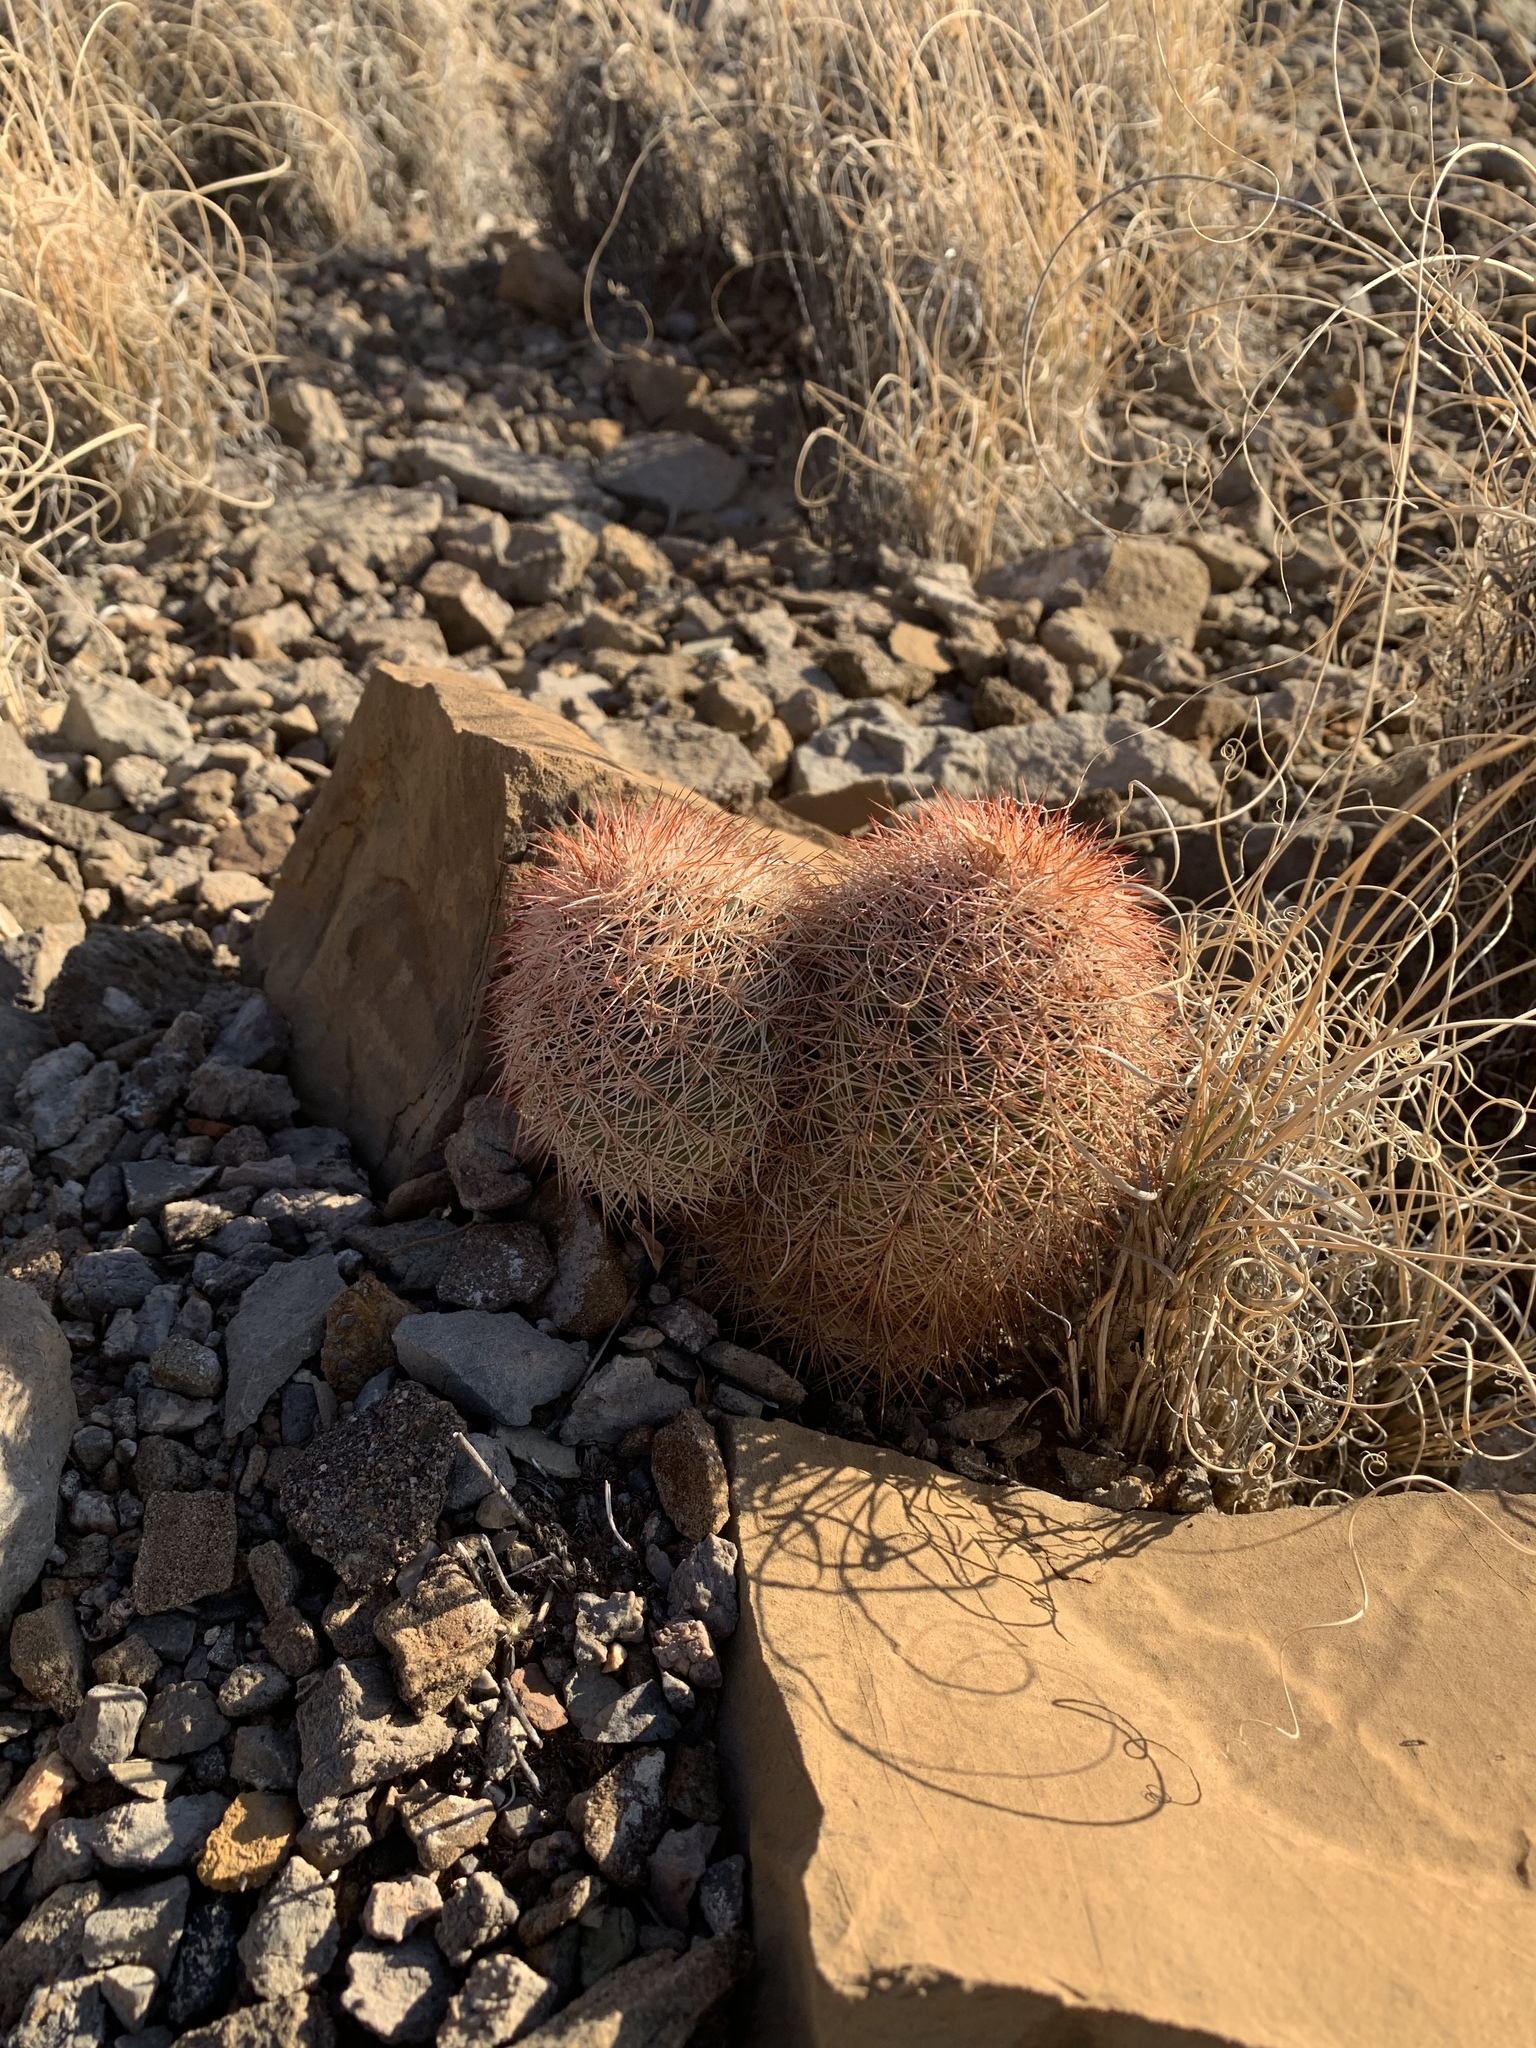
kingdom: Plantae
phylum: Tracheophyta
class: Magnoliopsida
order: Caryophyllales
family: Cactaceae
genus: Echinocereus
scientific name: Echinocereus dasyacanthus
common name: Spiny hedgehog cactus
